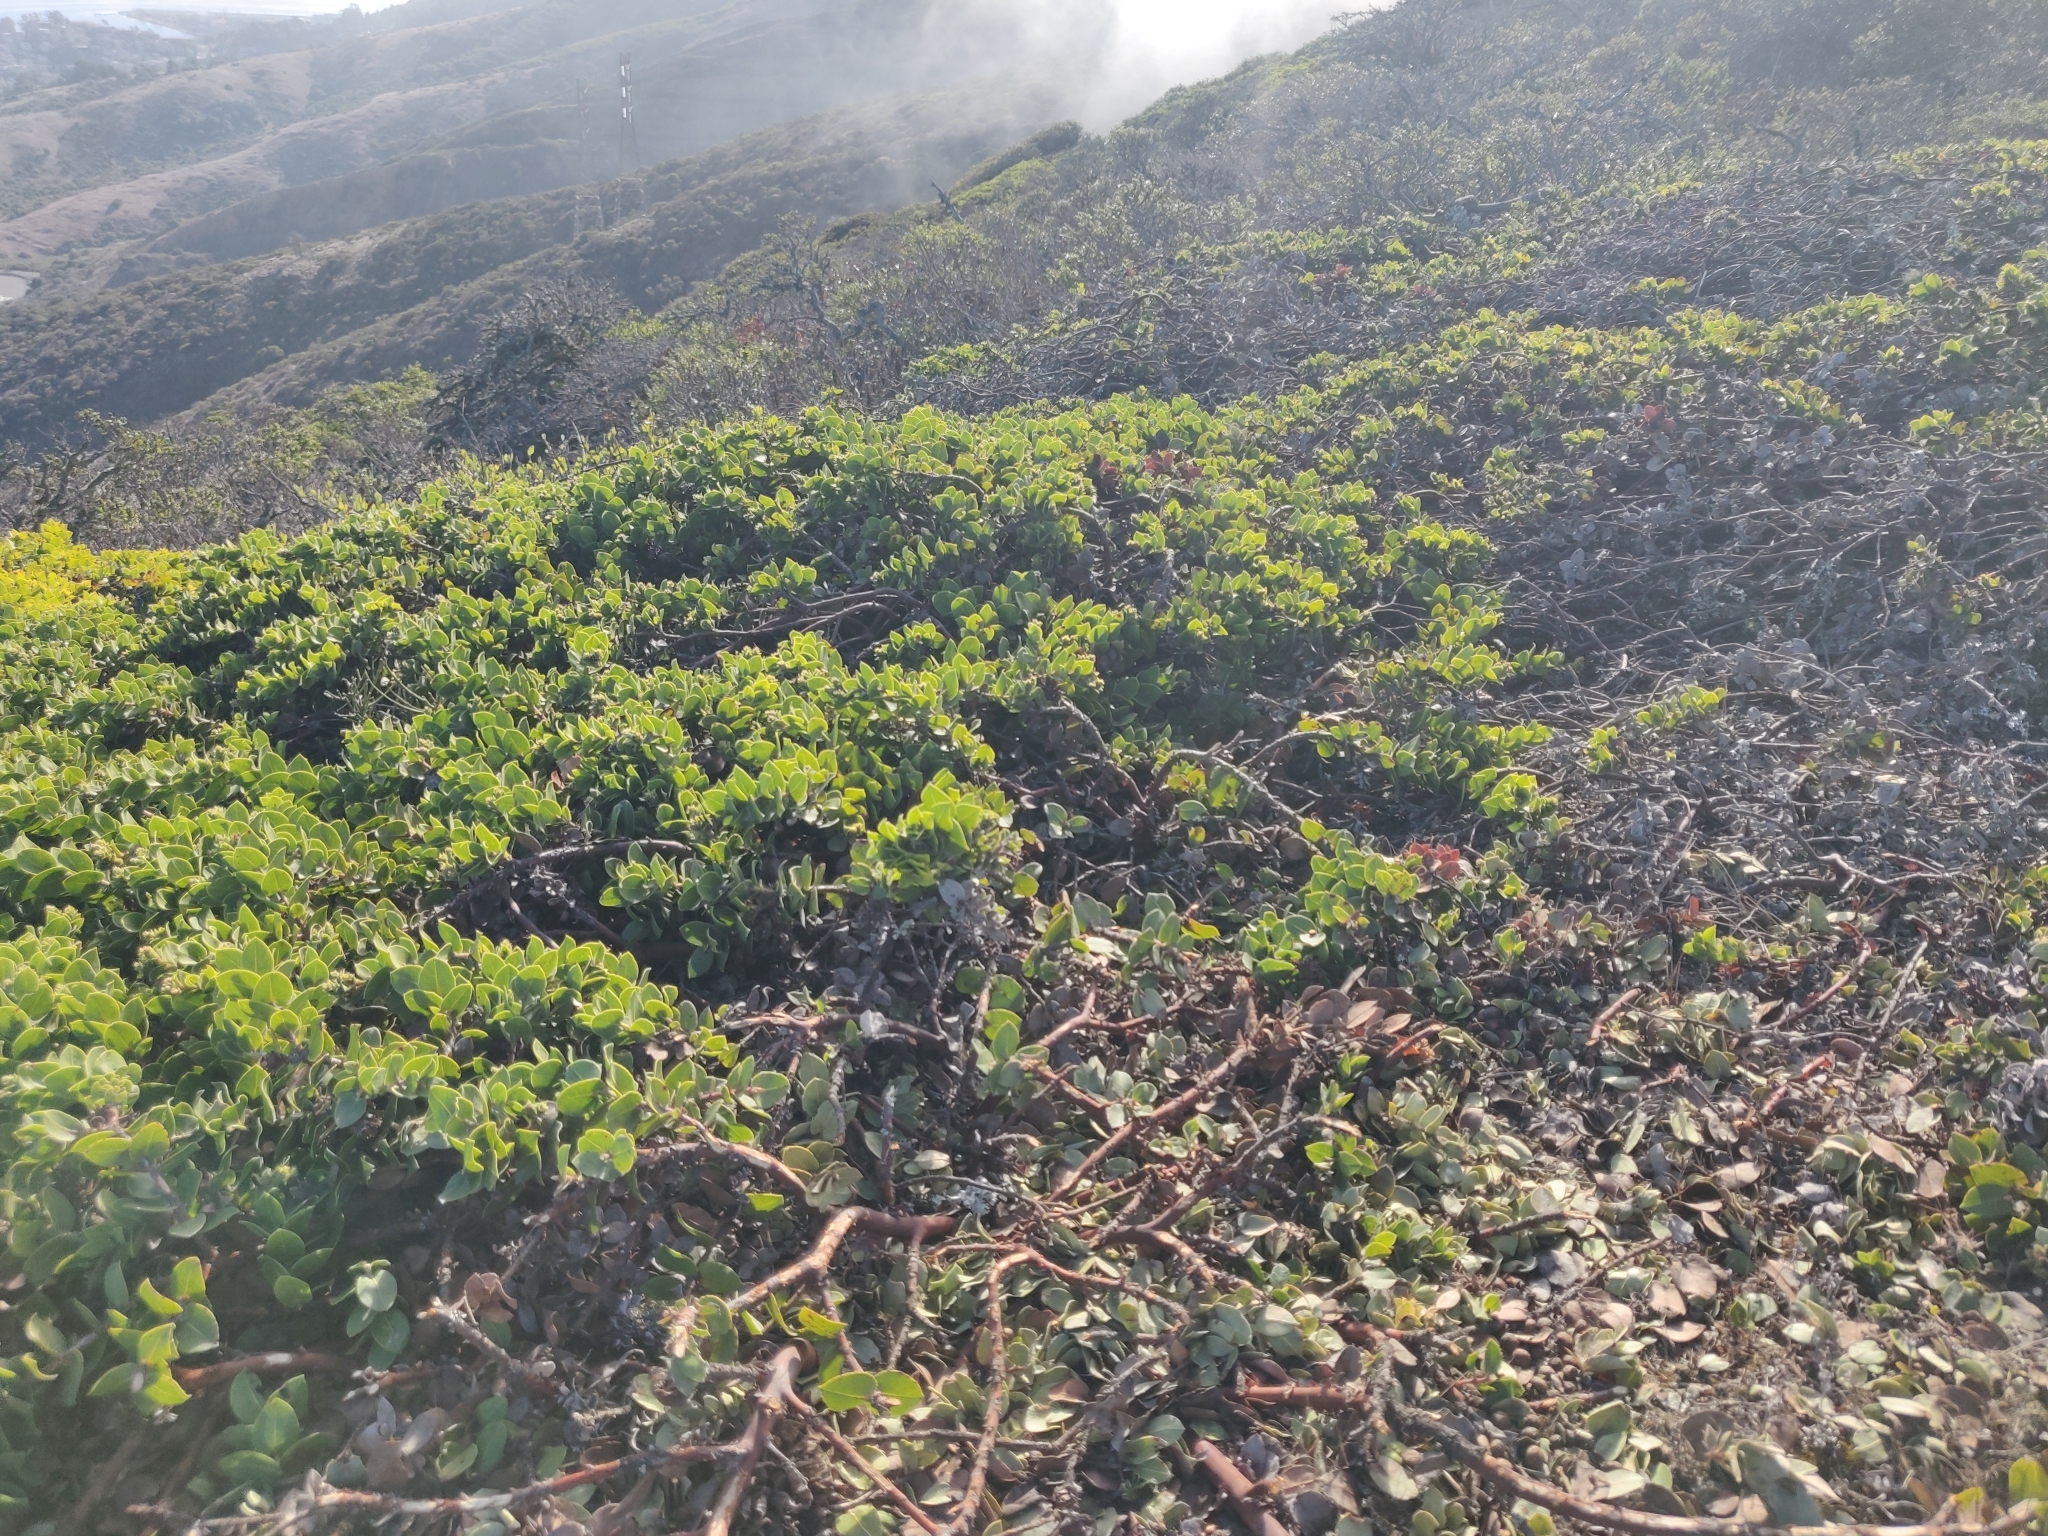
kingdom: Plantae
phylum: Tracheophyta
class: Magnoliopsida
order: Ericales
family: Ericaceae
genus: Arctostaphylos
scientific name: Arctostaphylos imbricata
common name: San bruno mountain manzanita
